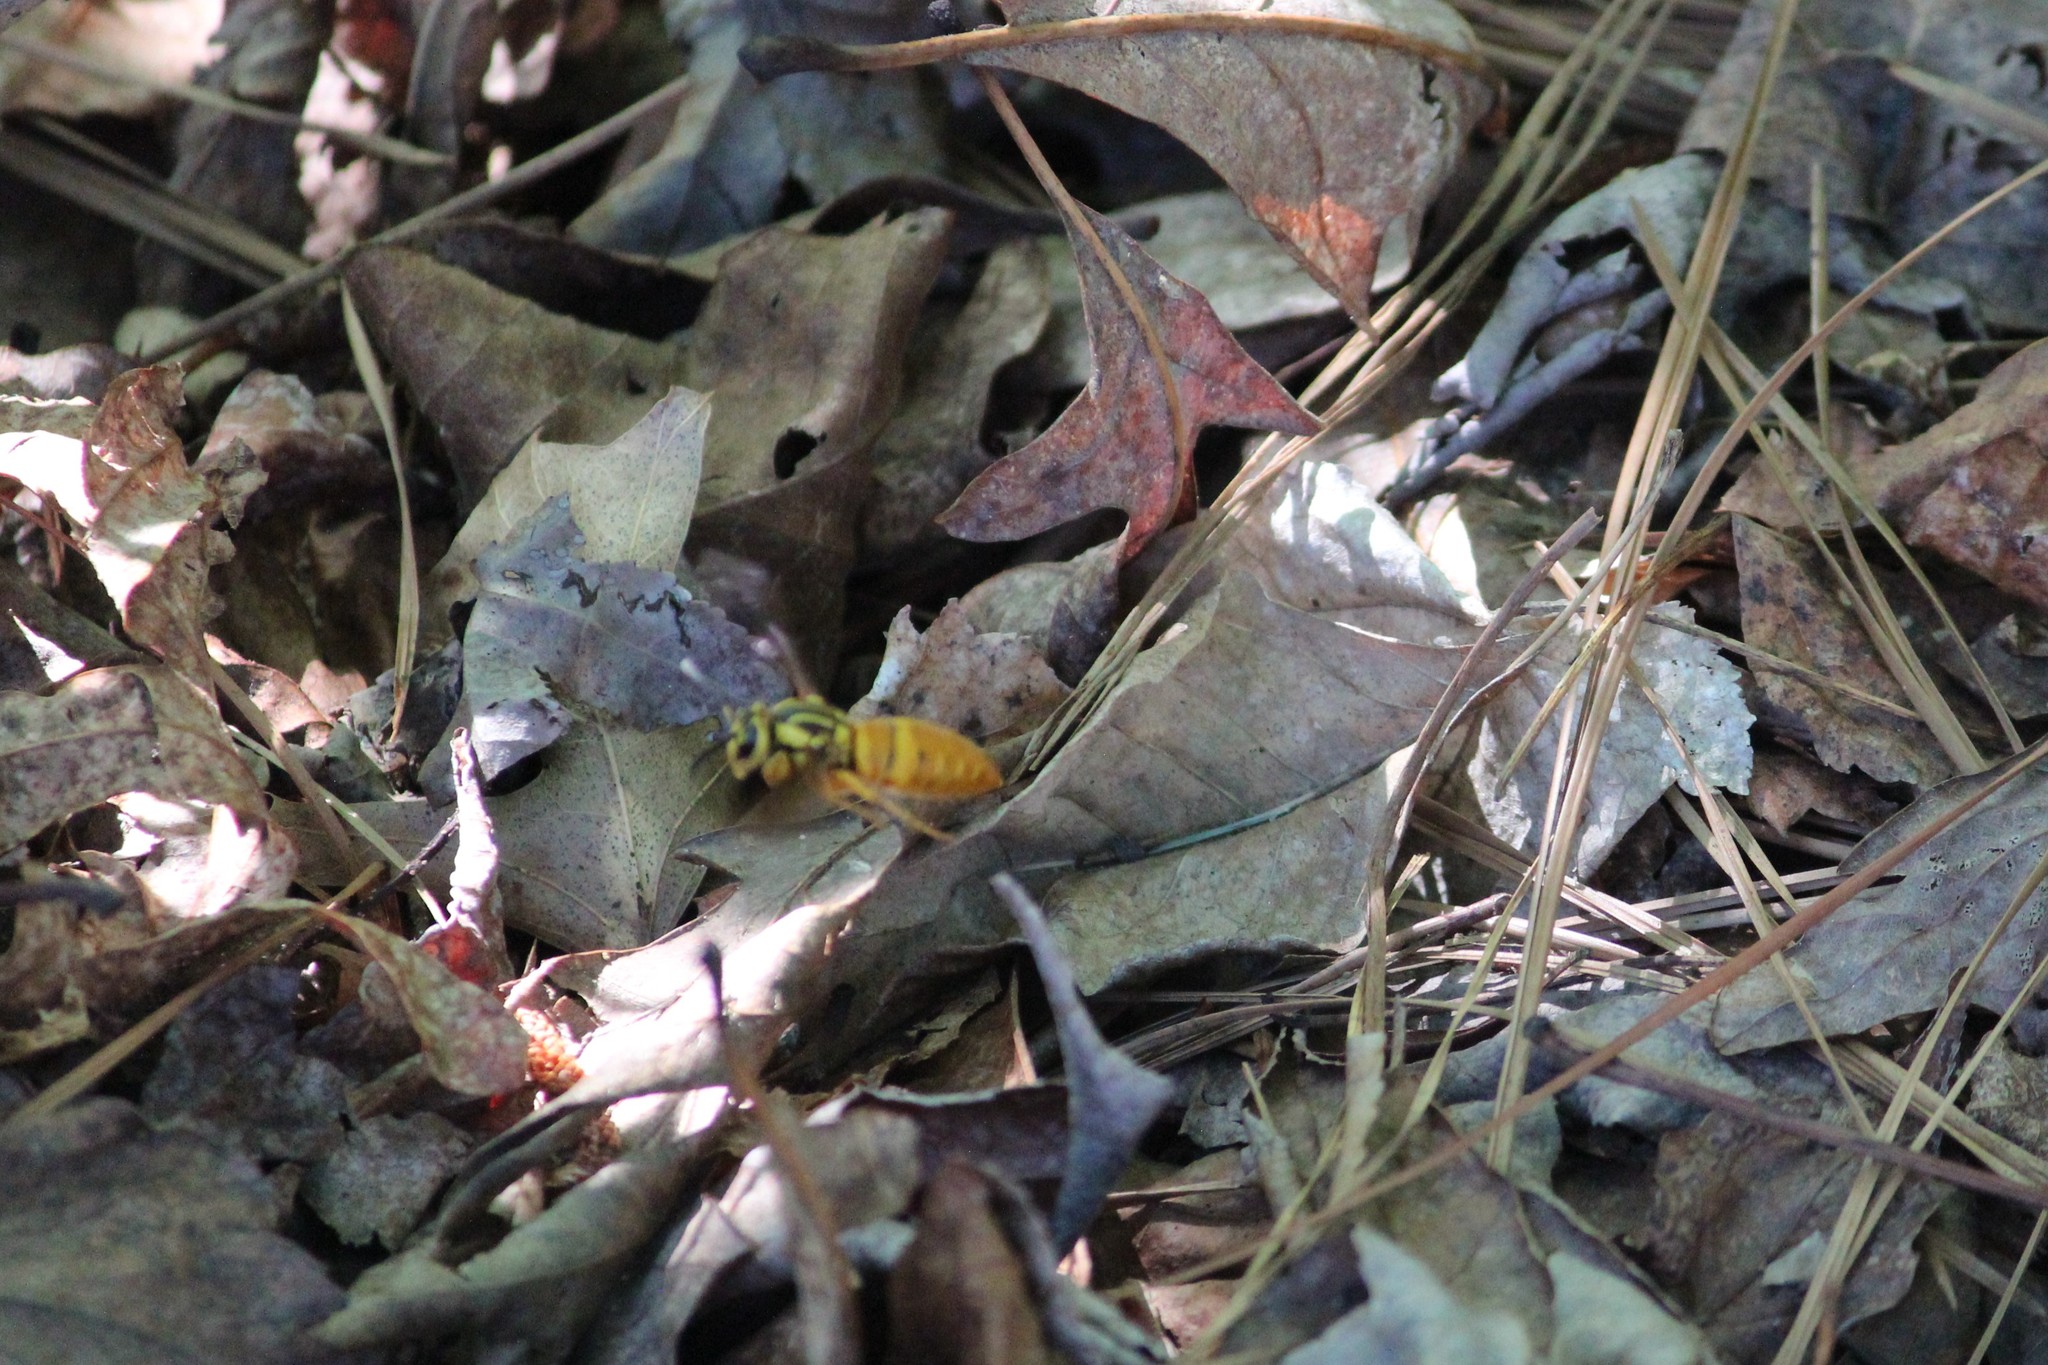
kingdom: Animalia
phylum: Arthropoda
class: Insecta
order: Hymenoptera
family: Vespidae
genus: Vespula
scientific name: Vespula squamosa
